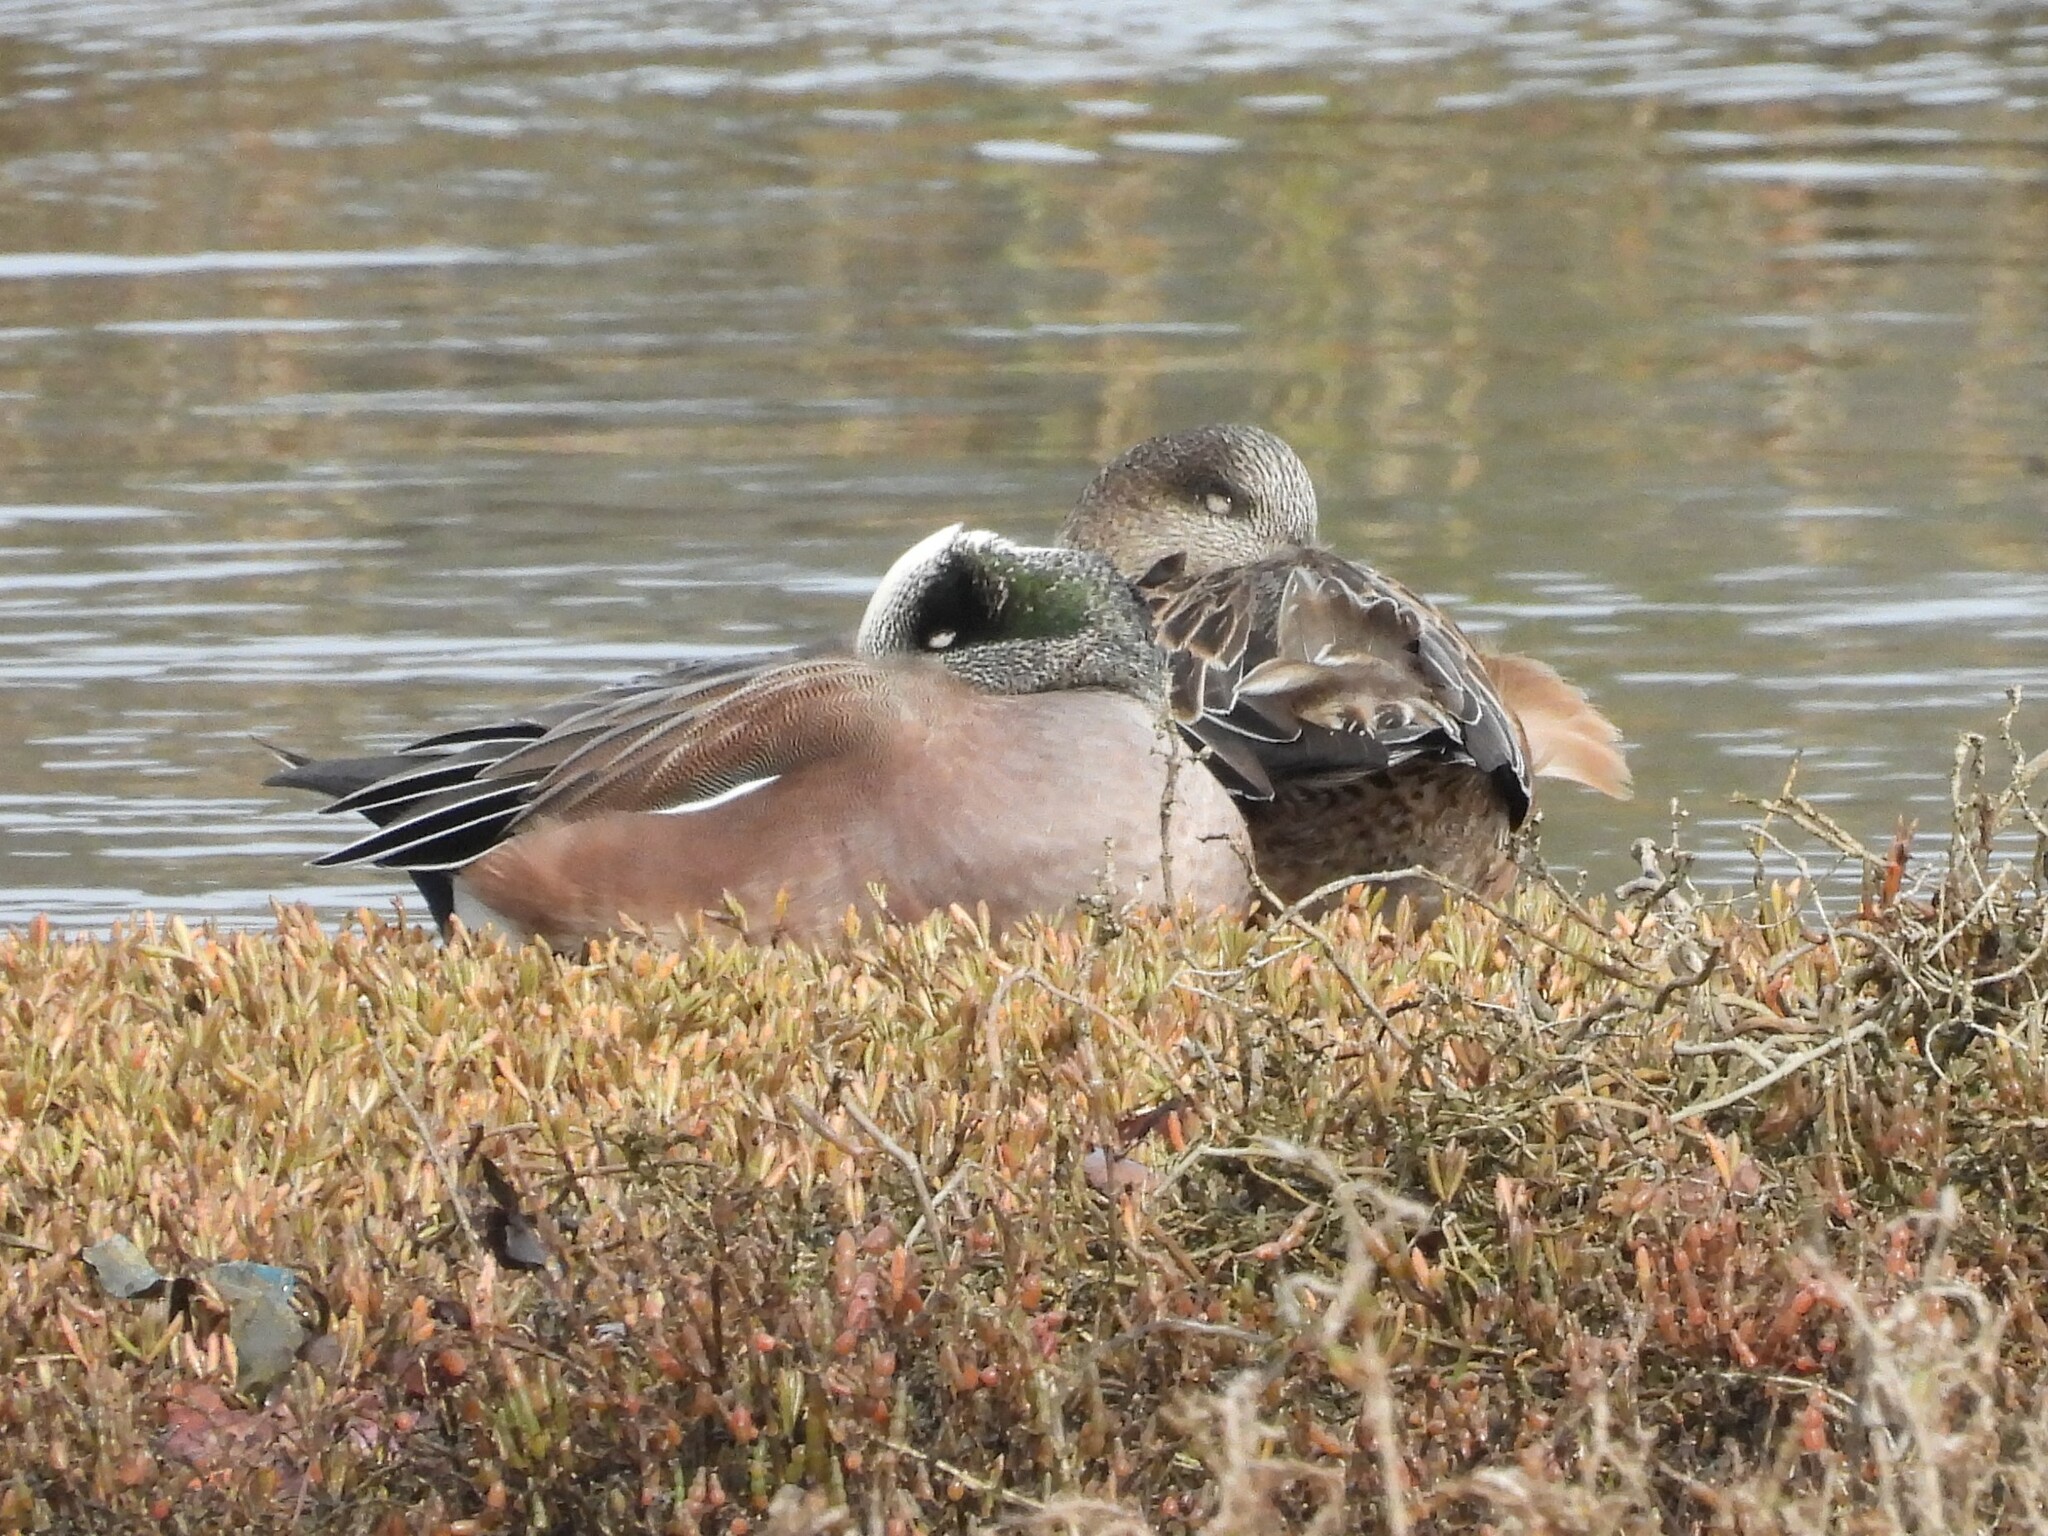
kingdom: Animalia
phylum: Chordata
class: Aves
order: Anseriformes
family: Anatidae
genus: Mareca
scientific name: Mareca americana
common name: American wigeon
